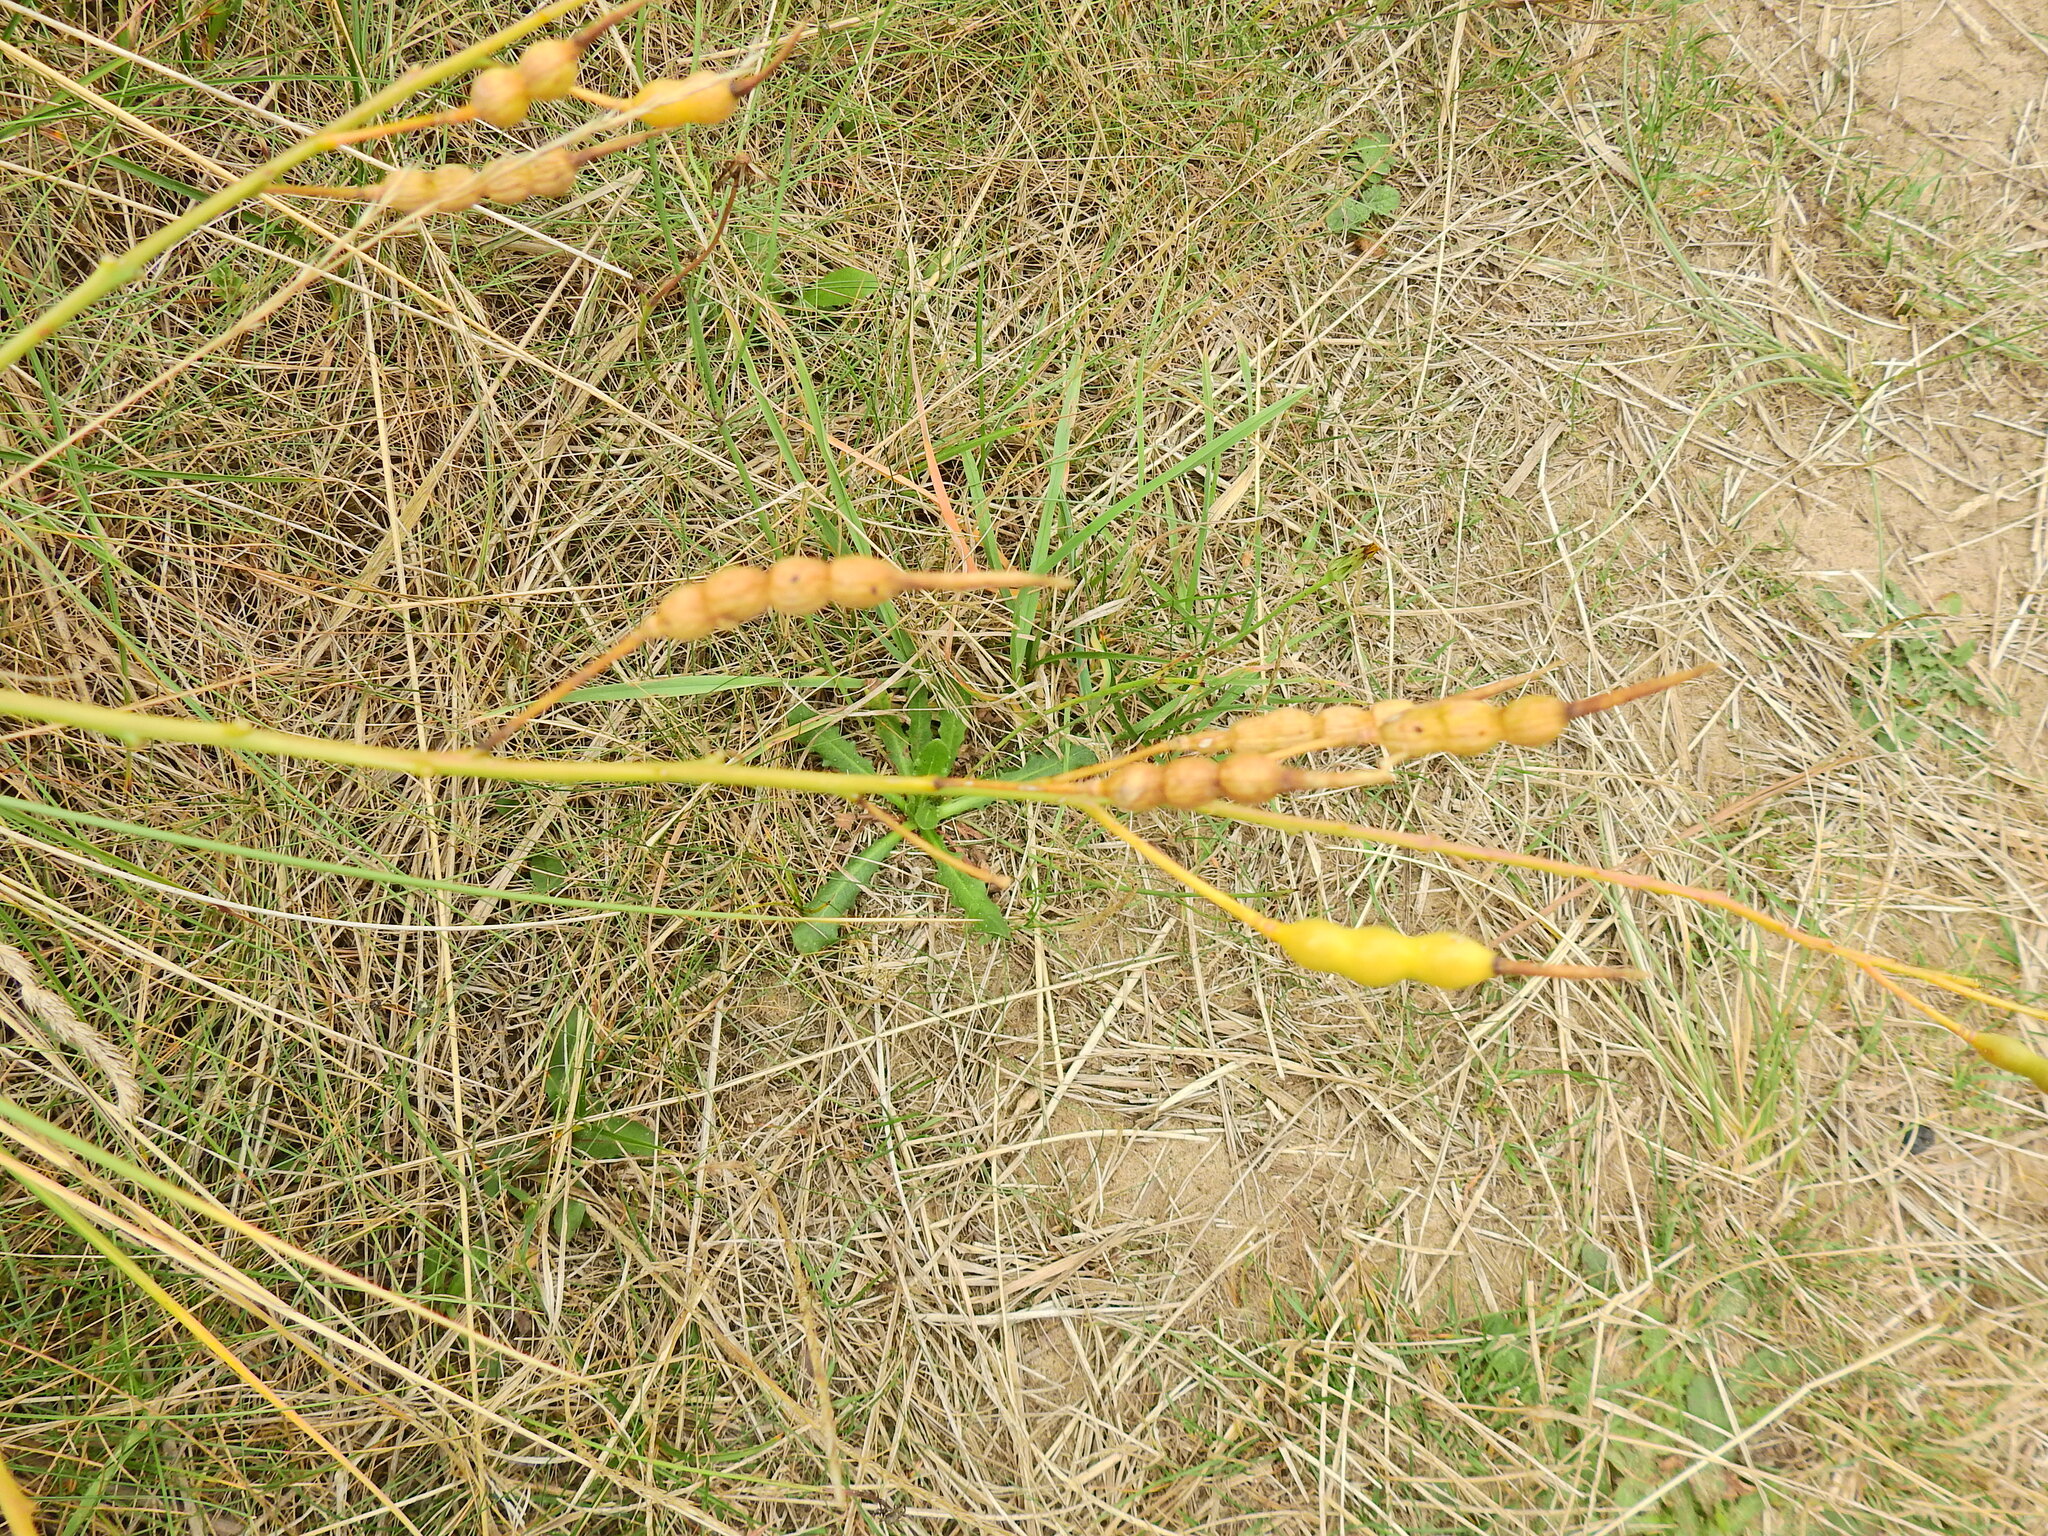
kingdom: Plantae
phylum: Tracheophyta
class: Magnoliopsida
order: Brassicales
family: Brassicaceae
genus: Raphanus
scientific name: Raphanus raphanistrum
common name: Wild radish
